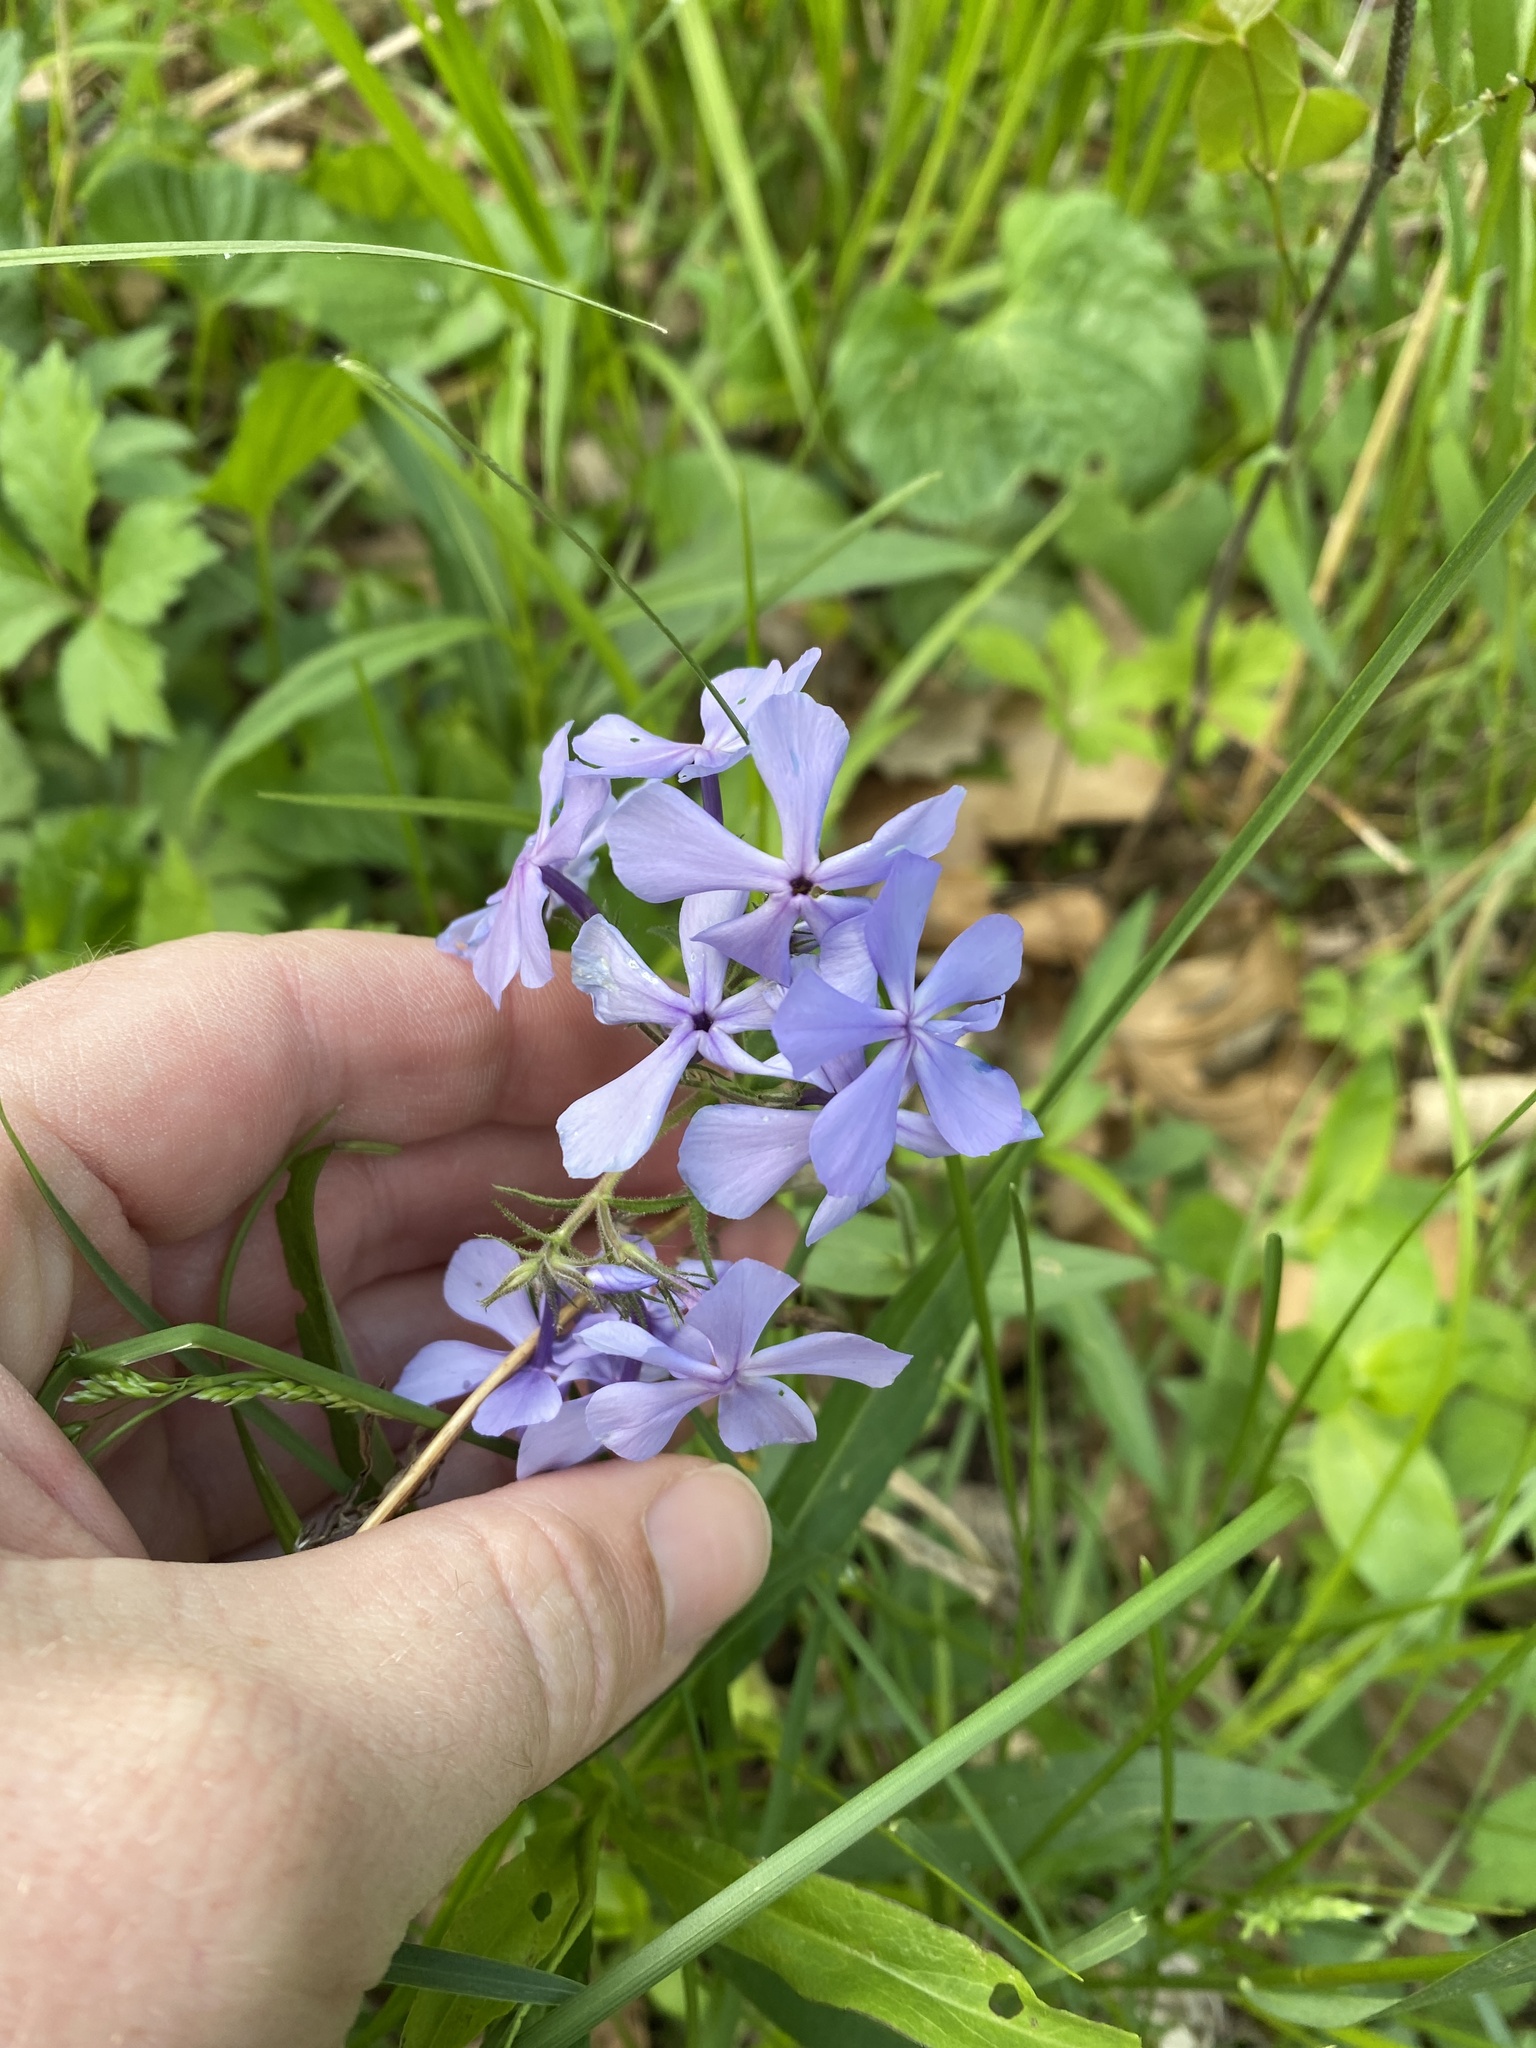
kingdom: Plantae
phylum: Tracheophyta
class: Magnoliopsida
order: Ericales
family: Polemoniaceae
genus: Phlox
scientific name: Phlox divaricata
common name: Blue phlox
